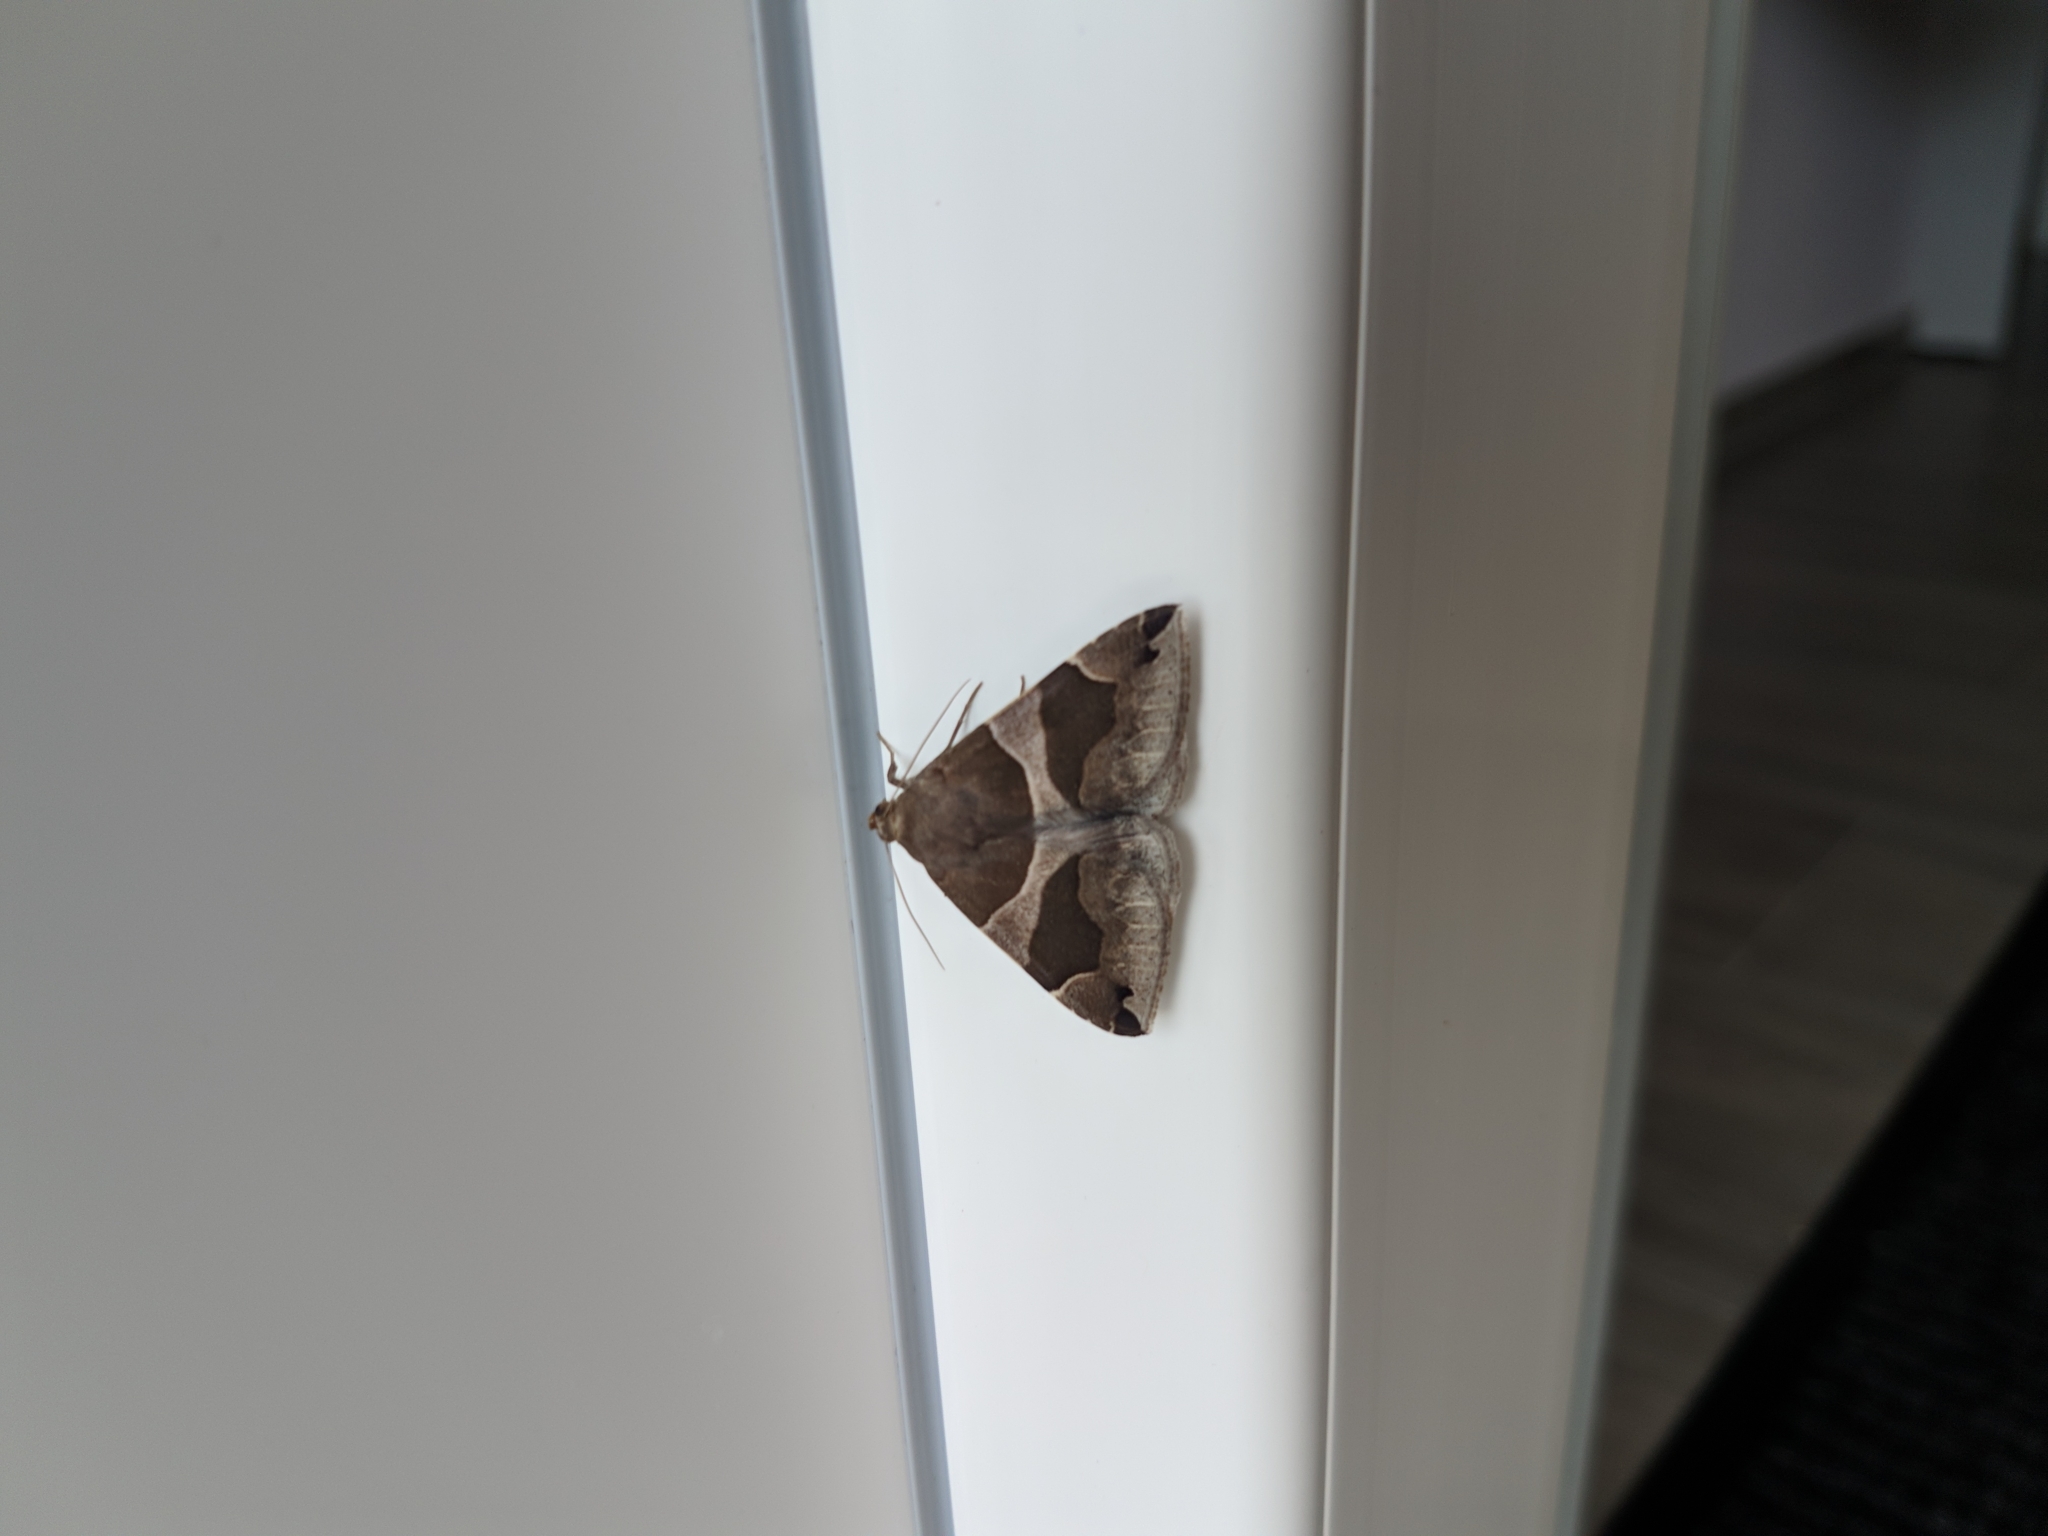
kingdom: Animalia
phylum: Arthropoda
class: Insecta
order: Lepidoptera
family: Erebidae
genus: Dysgonia
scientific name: Dysgonia algira
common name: Passenger
